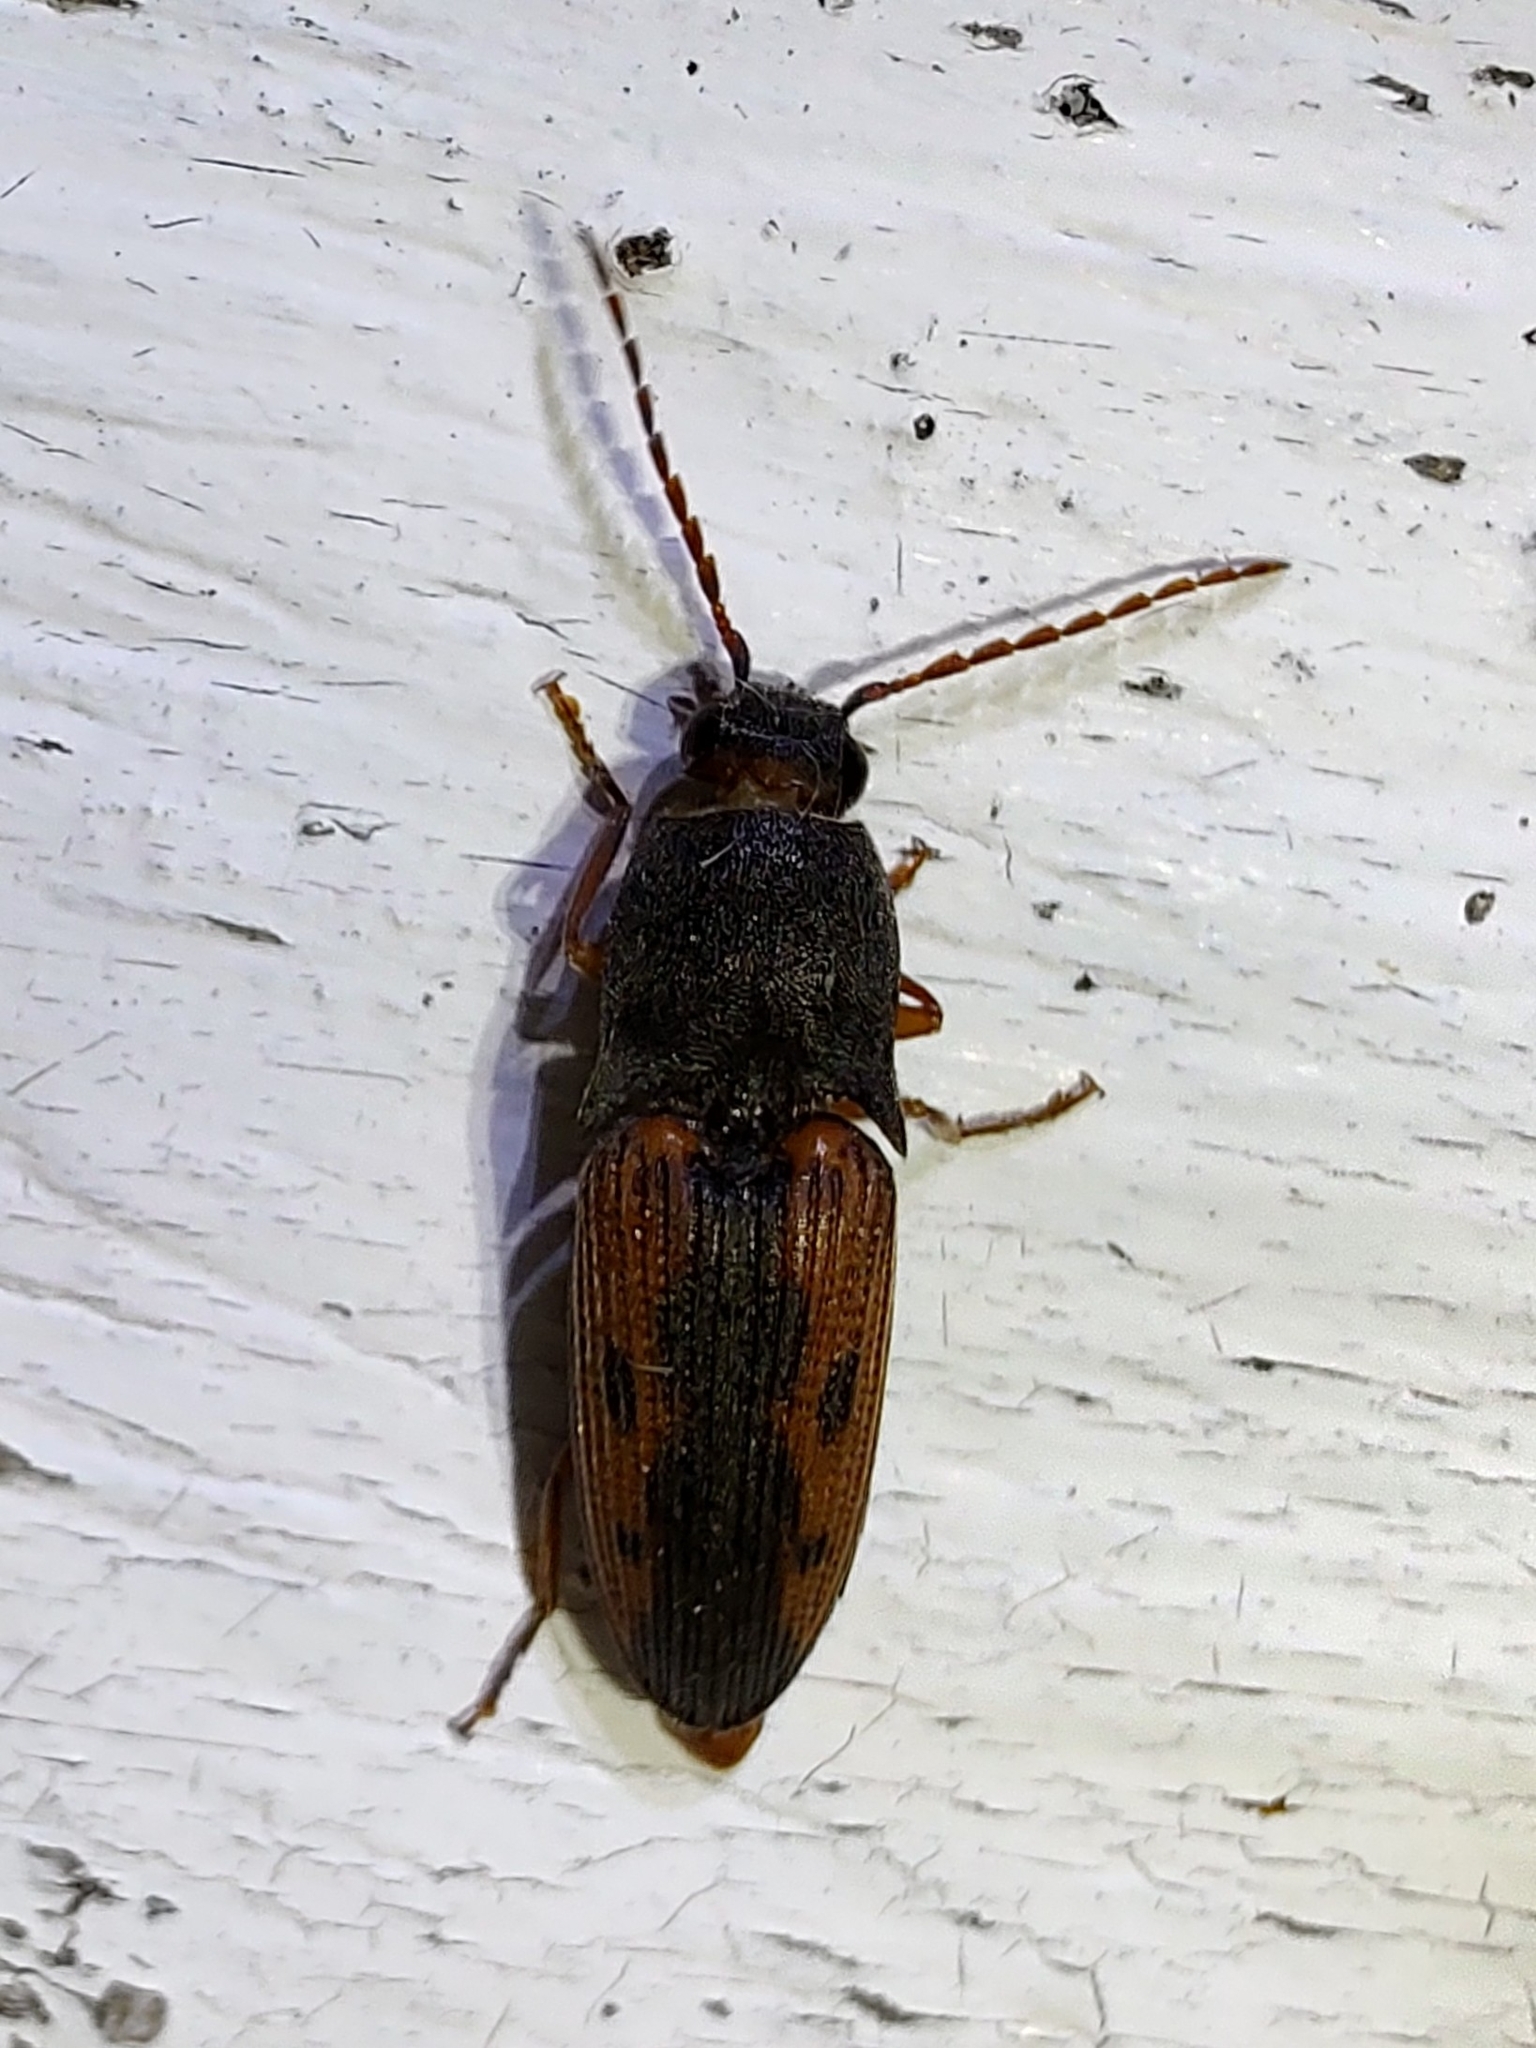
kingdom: Animalia
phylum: Arthropoda
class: Insecta
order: Coleoptera
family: Elateridae
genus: Monocrepidius
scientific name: Monocrepidius
